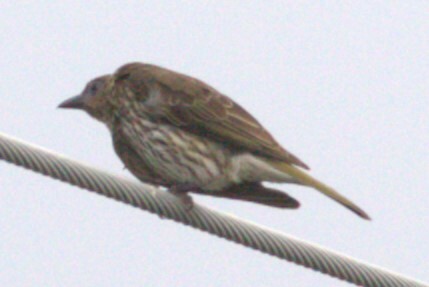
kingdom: Animalia
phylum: Chordata
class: Aves
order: Passeriformes
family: Oriolidae
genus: Sphecotheres
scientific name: Sphecotheres vieilloti
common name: Australasian figbird
